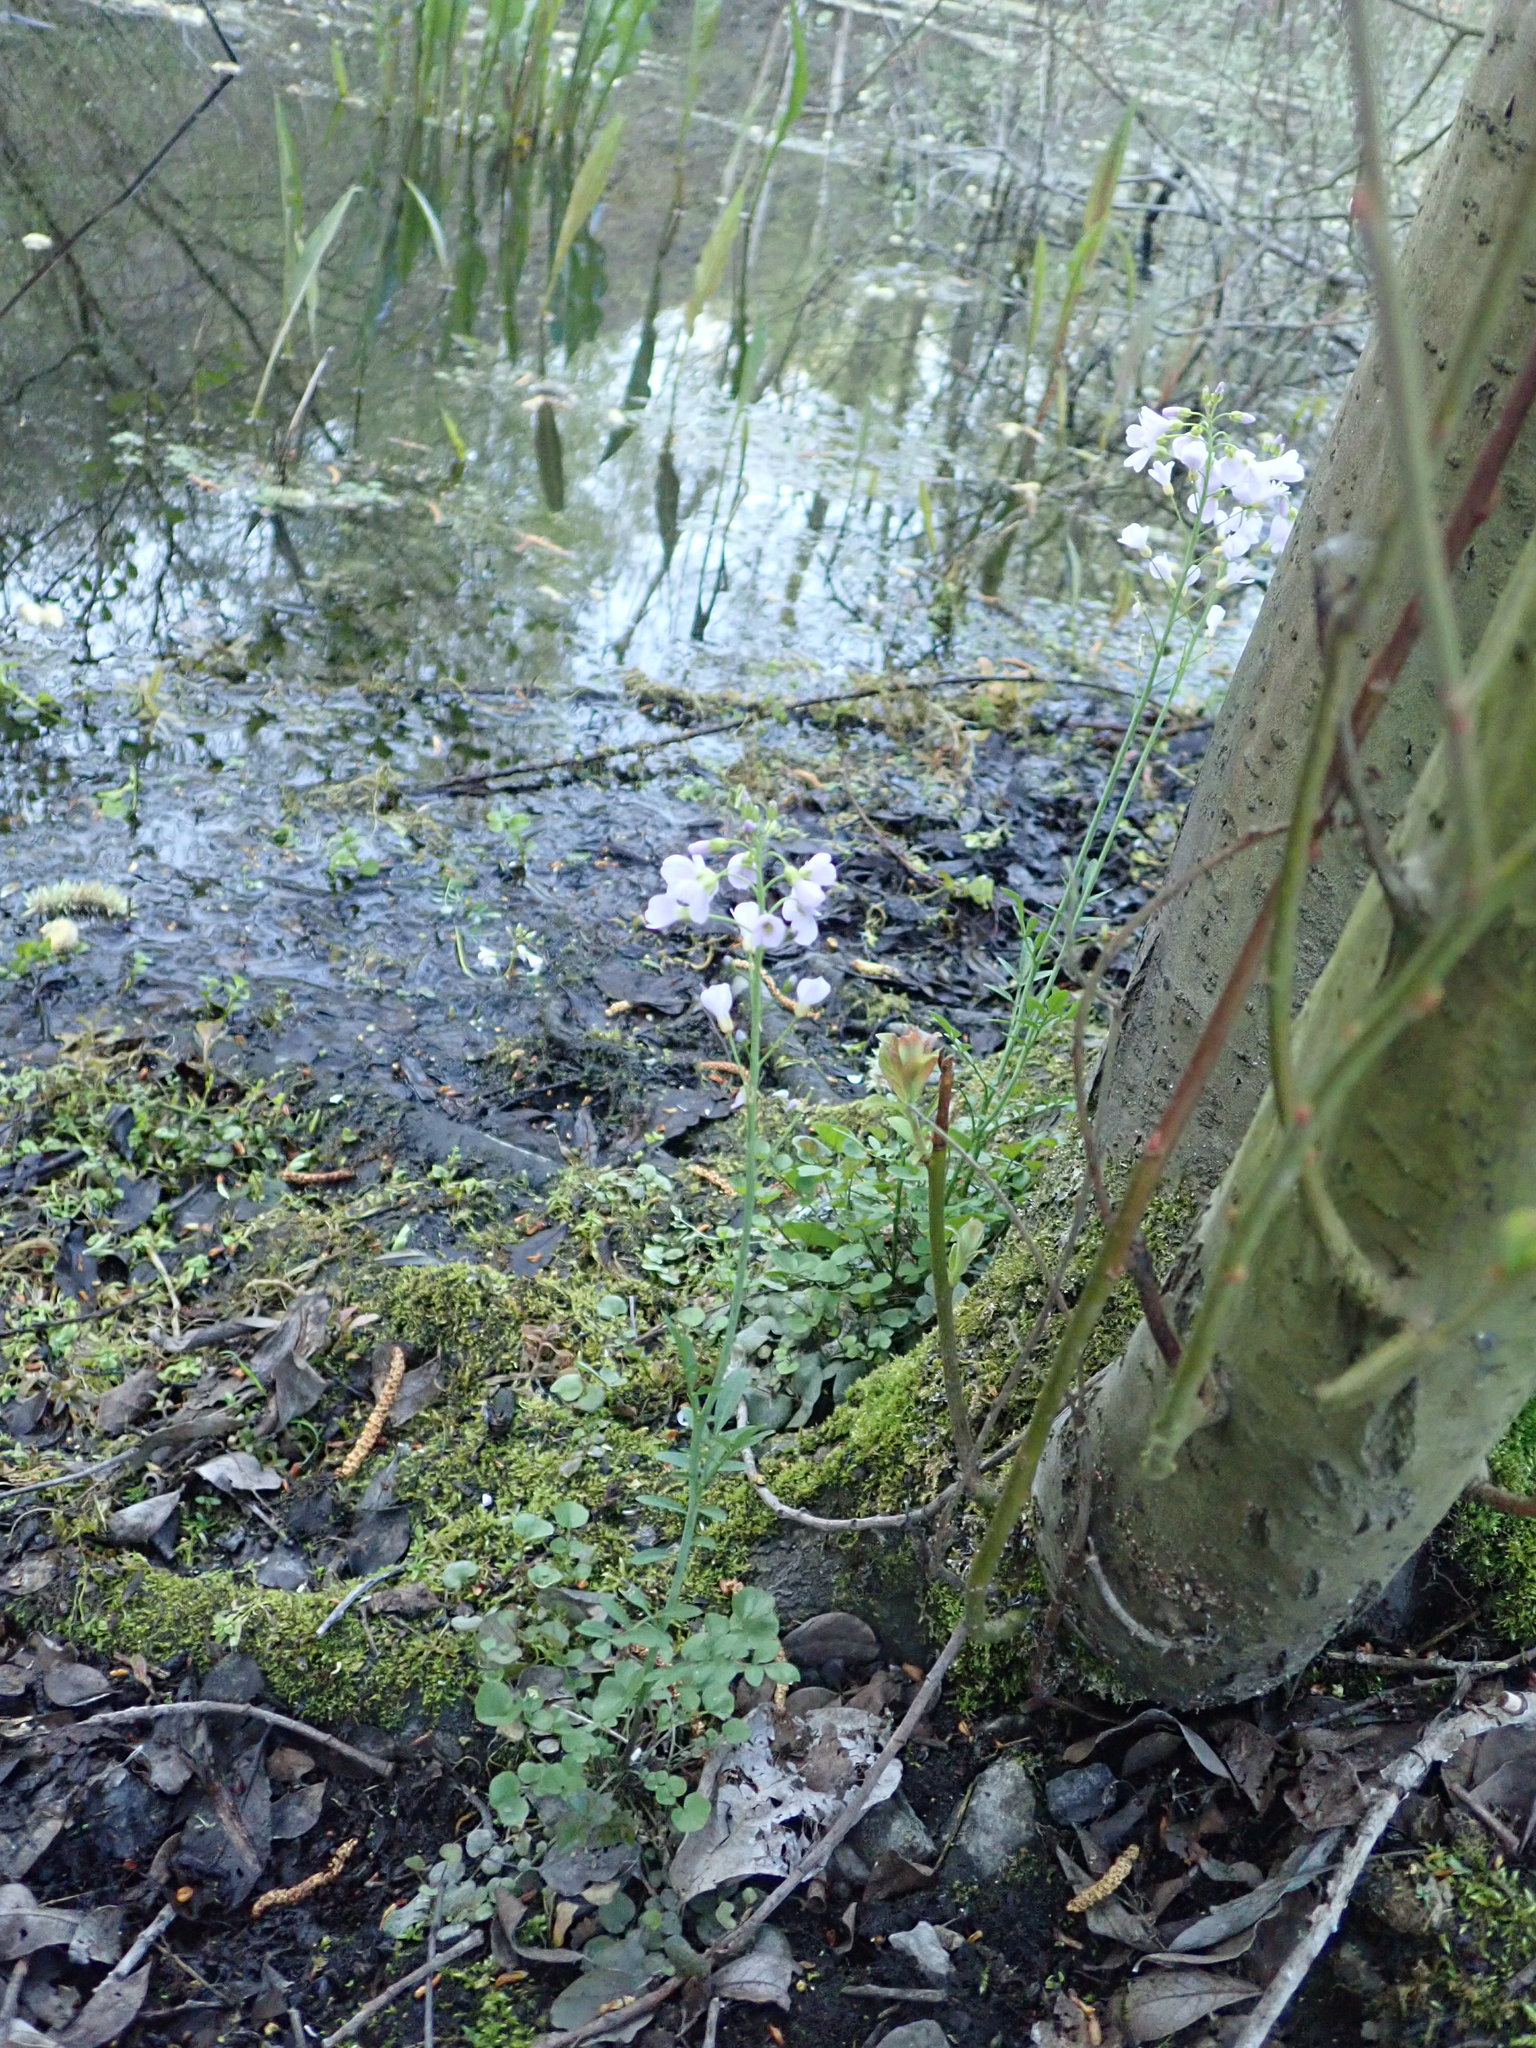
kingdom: Plantae
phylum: Tracheophyta
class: Magnoliopsida
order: Brassicales
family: Brassicaceae
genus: Cardamine
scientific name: Cardamine pratensis
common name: Cuckoo flower
